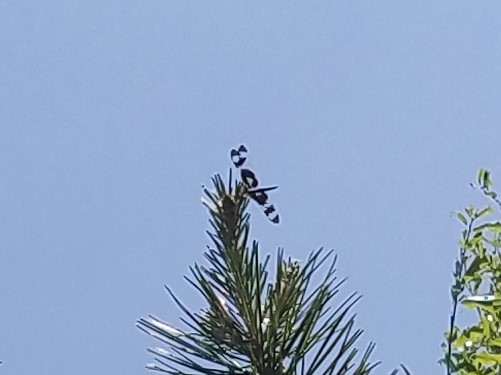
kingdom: Animalia
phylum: Arthropoda
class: Insecta
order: Odonata
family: Libellulidae
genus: Celithemis
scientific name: Celithemis fasciata
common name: Banded pennant
